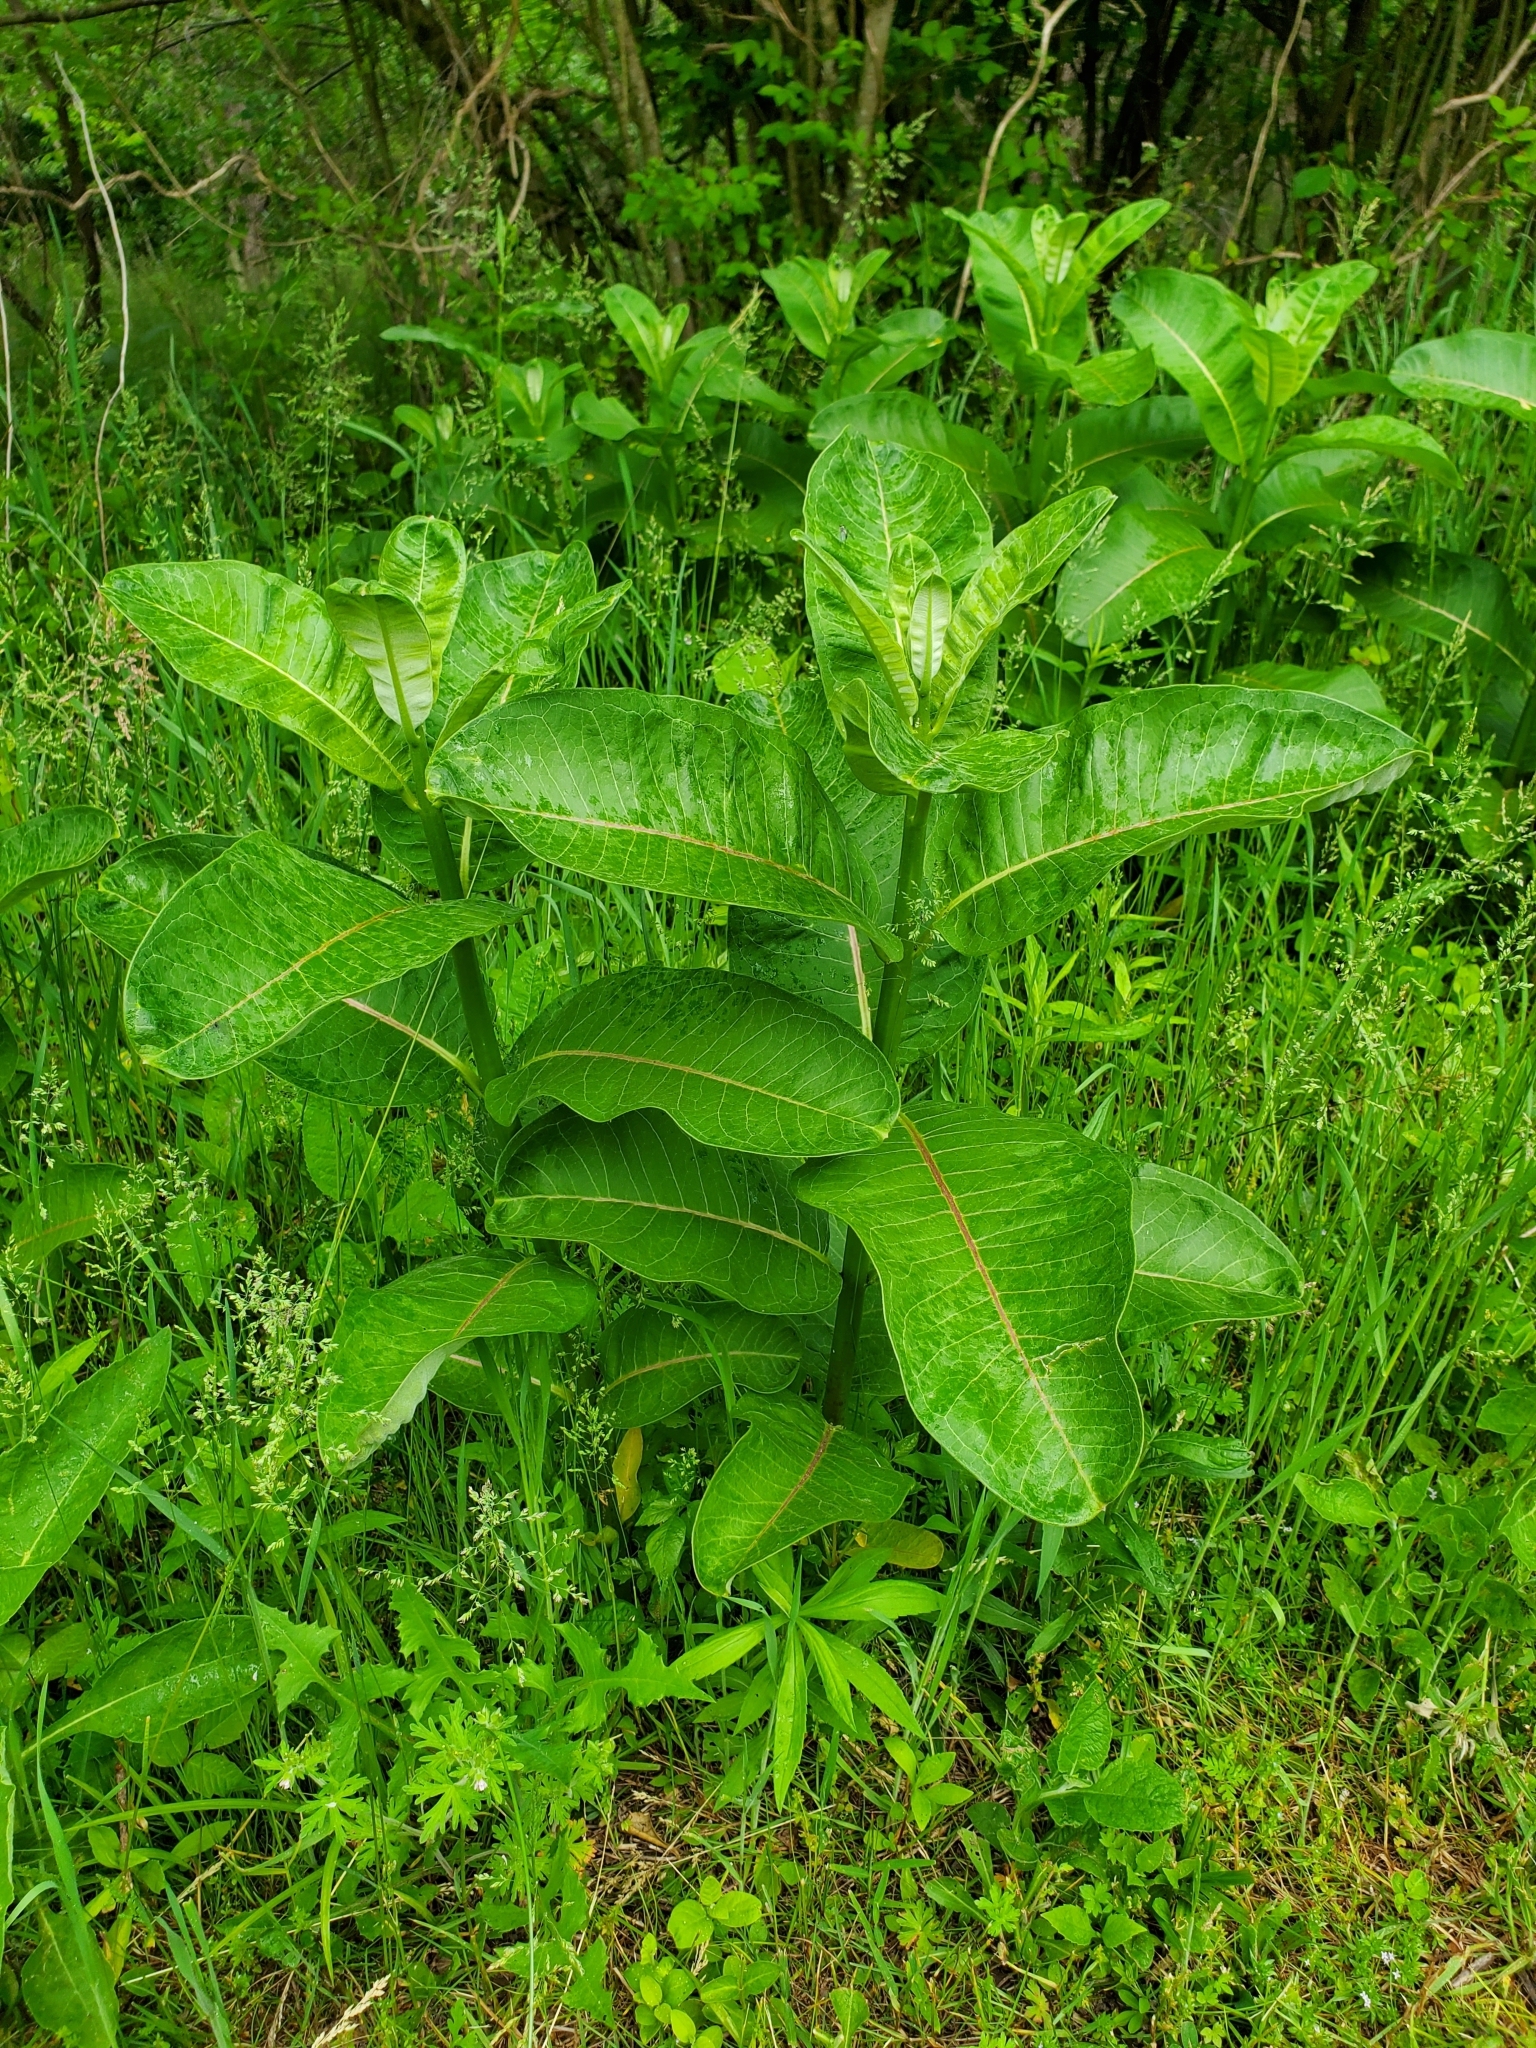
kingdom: Plantae
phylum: Tracheophyta
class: Magnoliopsida
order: Gentianales
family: Apocynaceae
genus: Asclepias
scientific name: Asclepias syriaca
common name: Common milkweed
